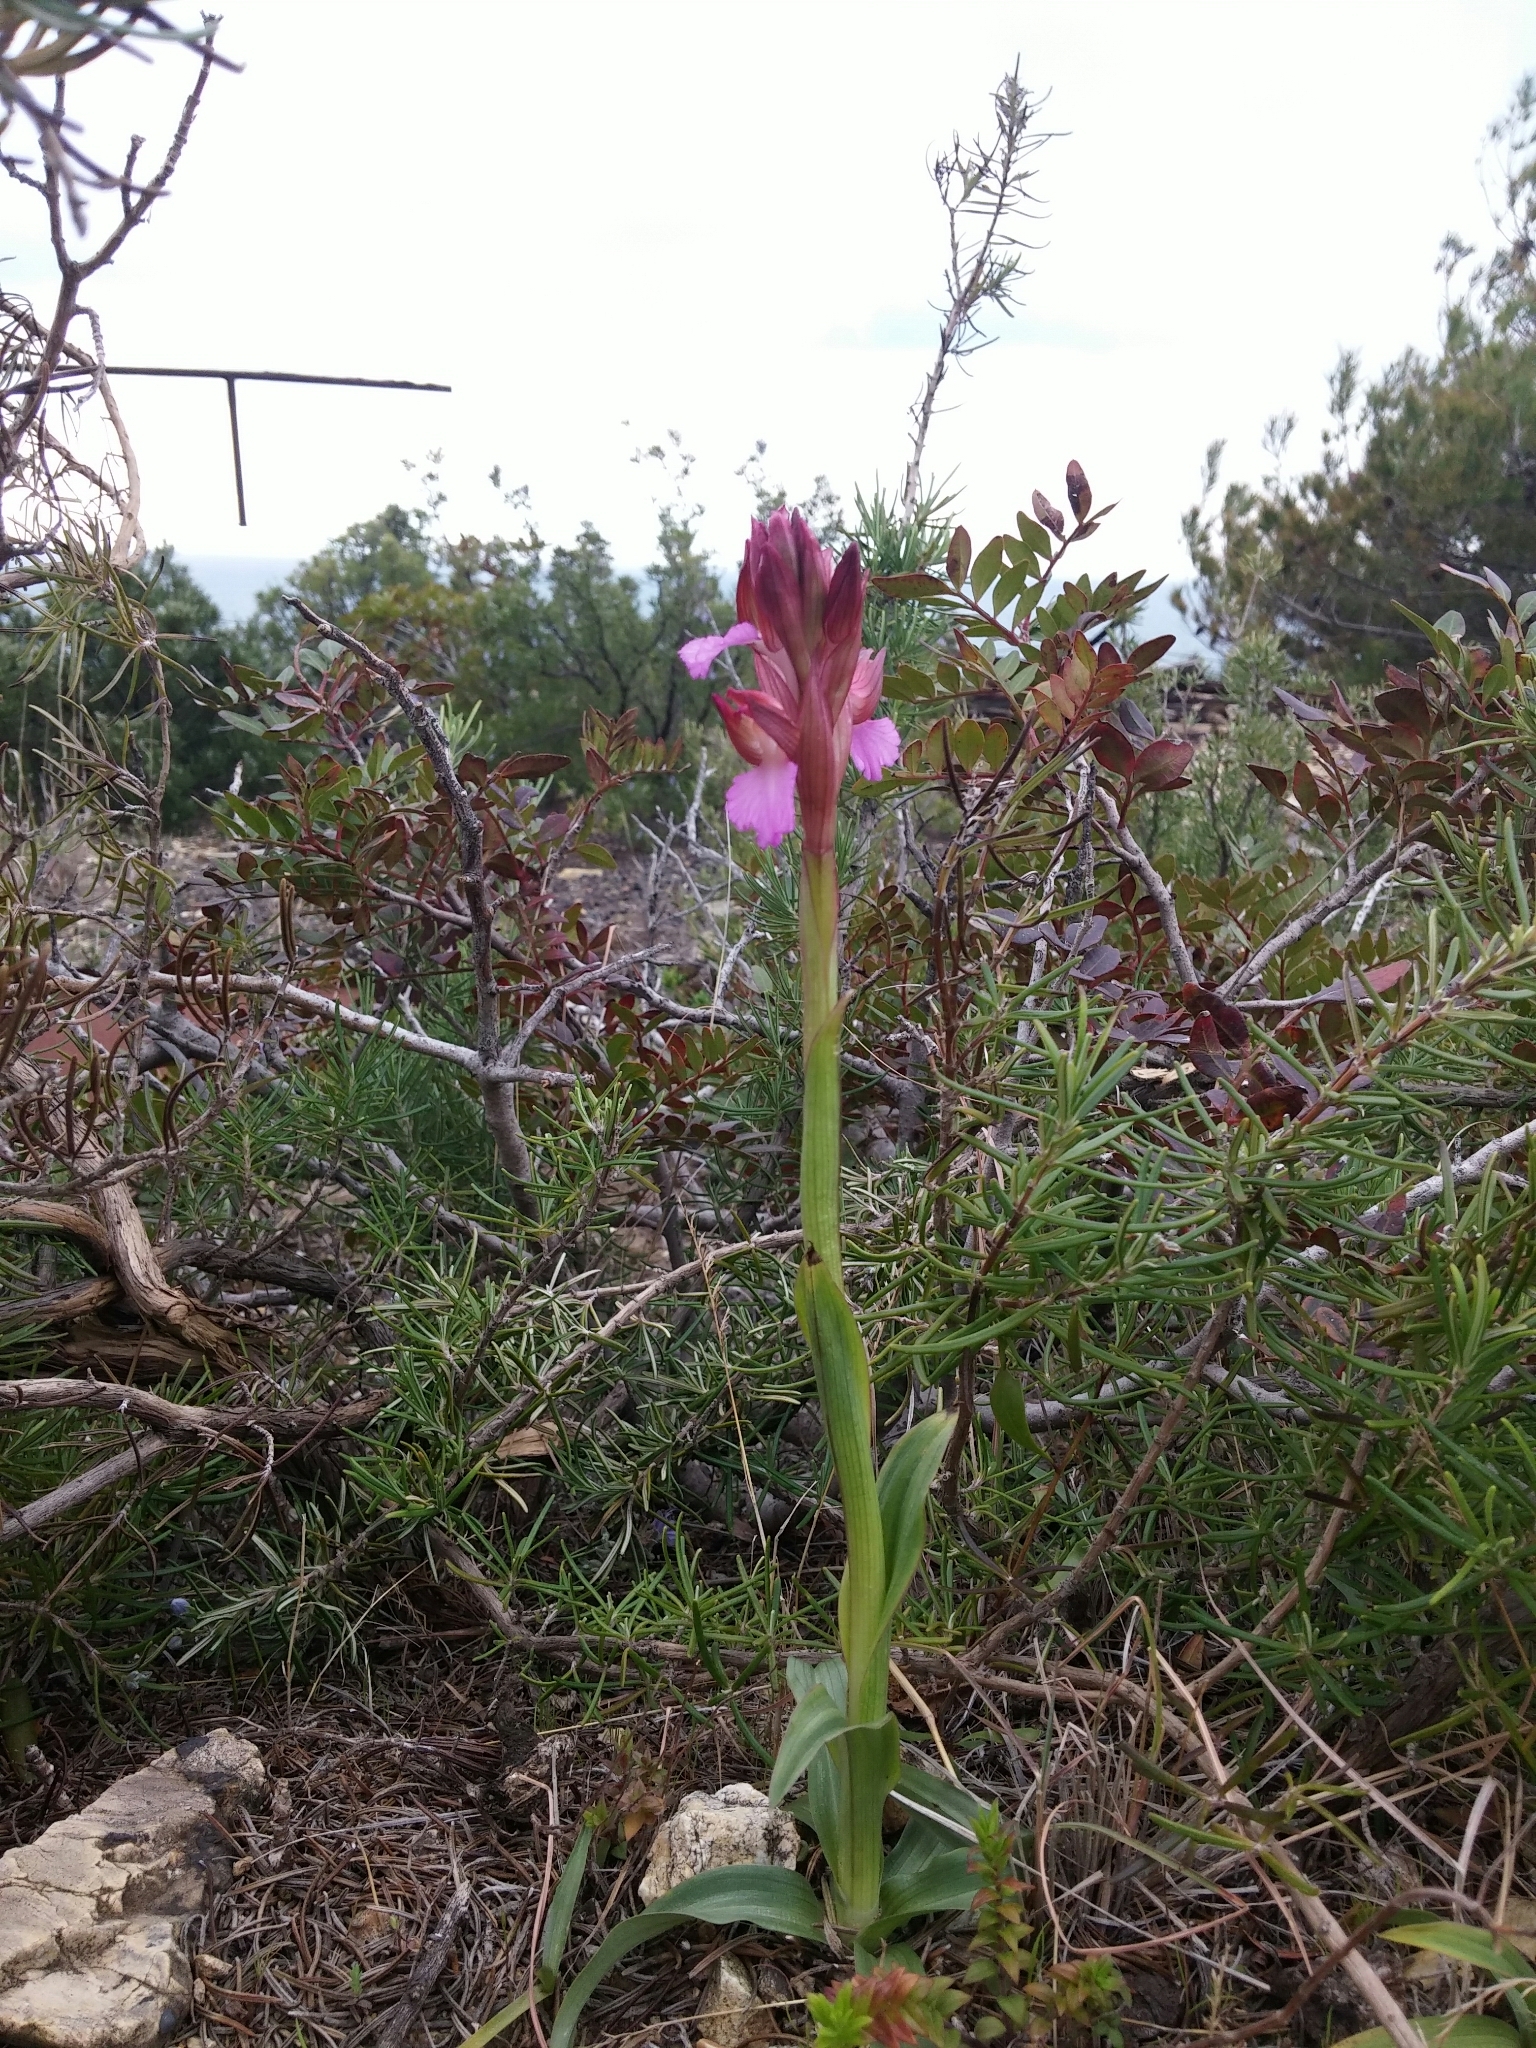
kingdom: Plantae
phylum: Tracheophyta
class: Liliopsida
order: Asparagales
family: Orchidaceae
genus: Anacamptis
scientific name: Anacamptis papilionacea
